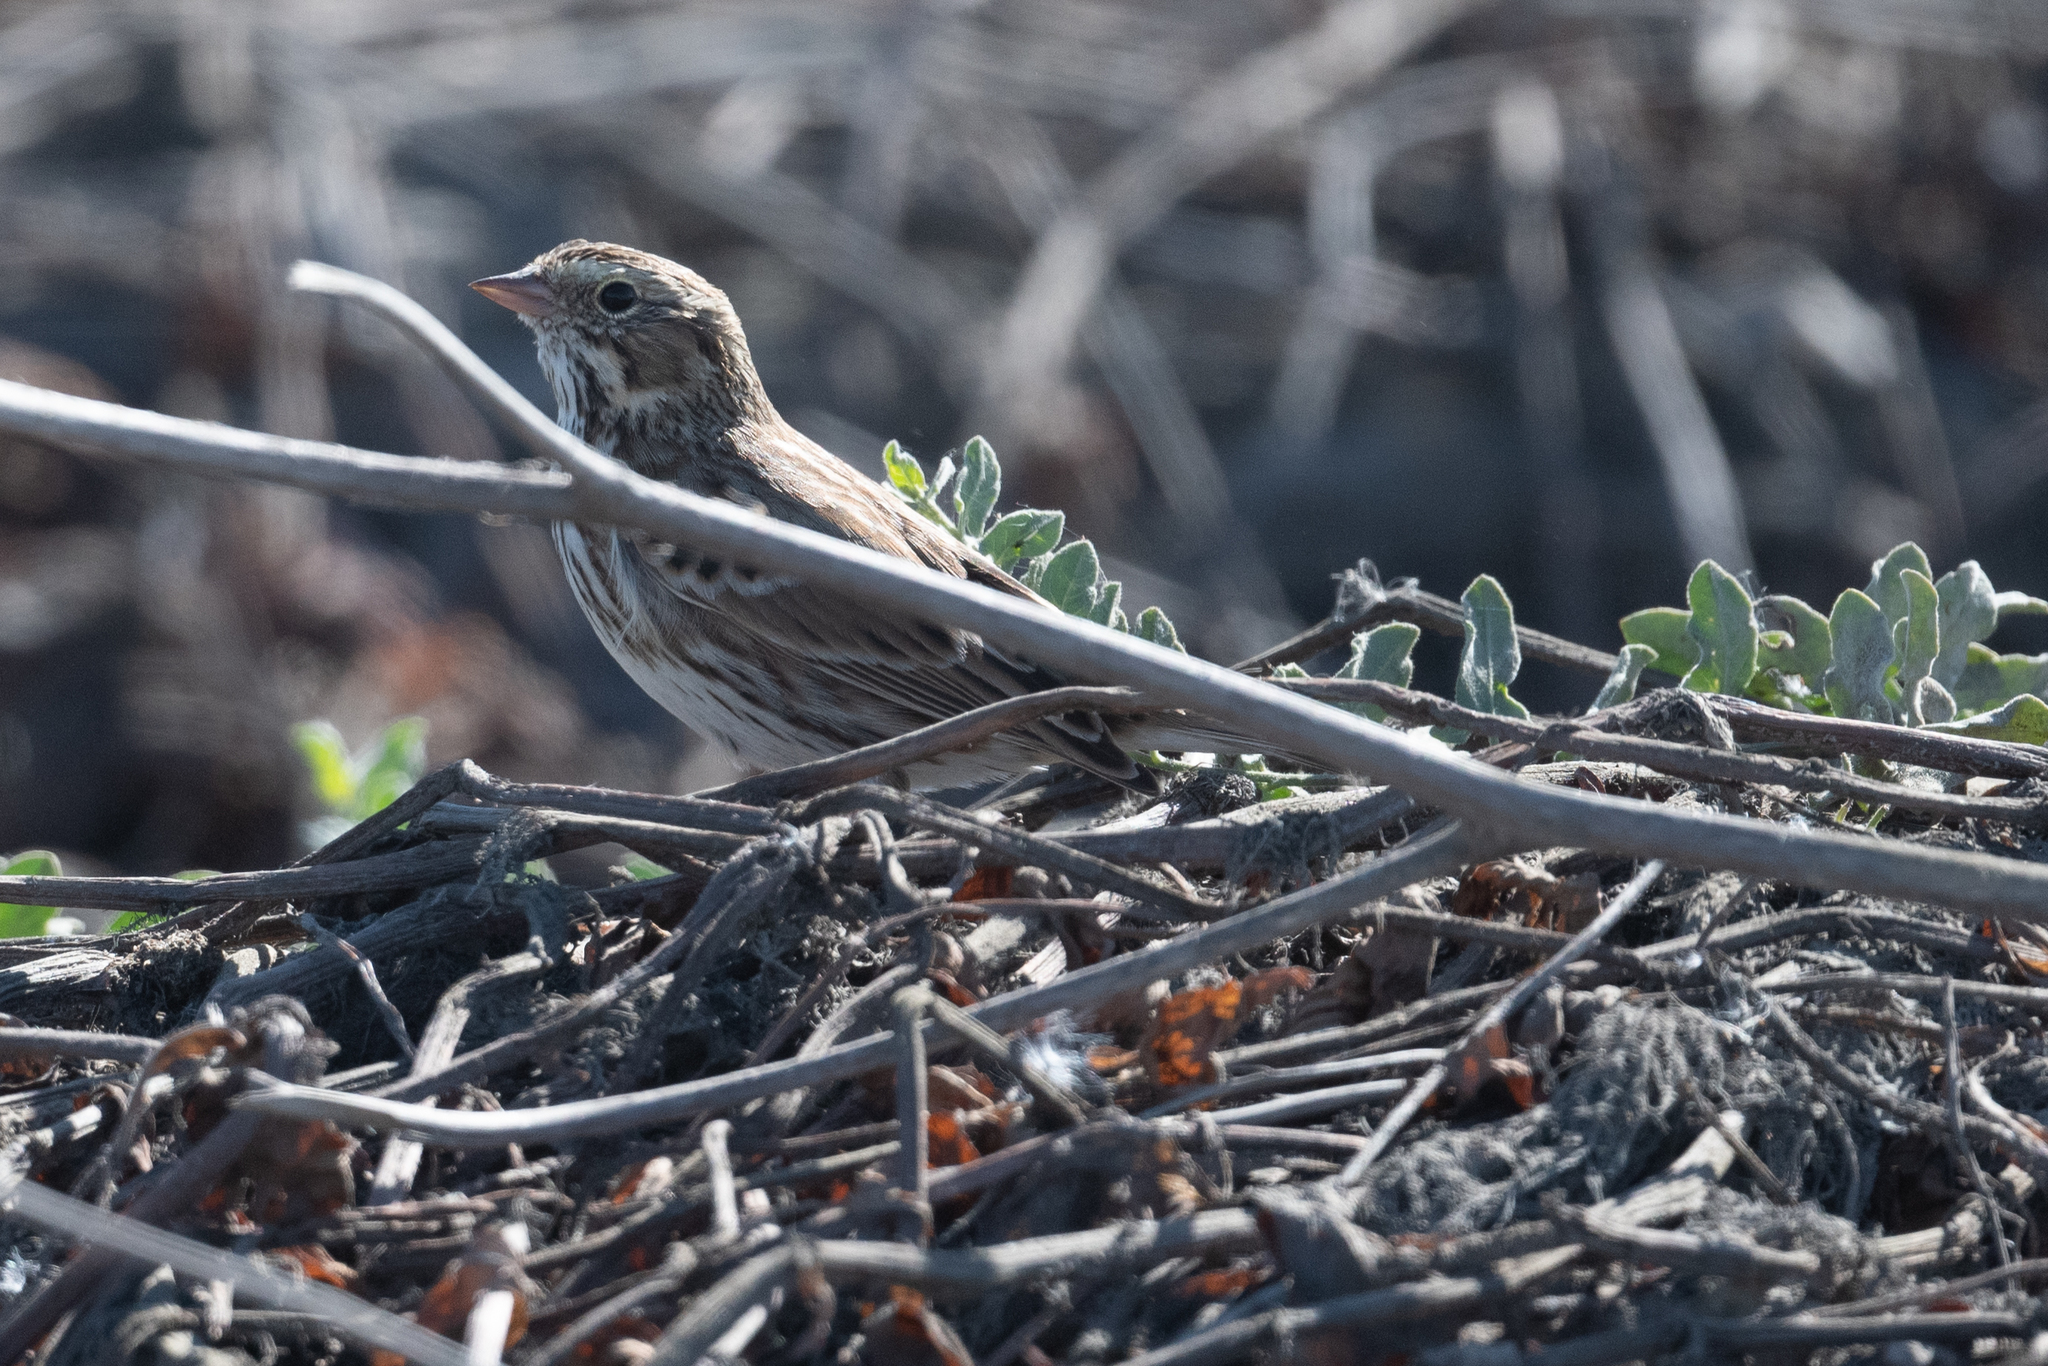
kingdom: Animalia
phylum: Chordata
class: Aves
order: Passeriformes
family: Passerellidae
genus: Passerculus
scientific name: Passerculus sandwichensis
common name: Savannah sparrow
